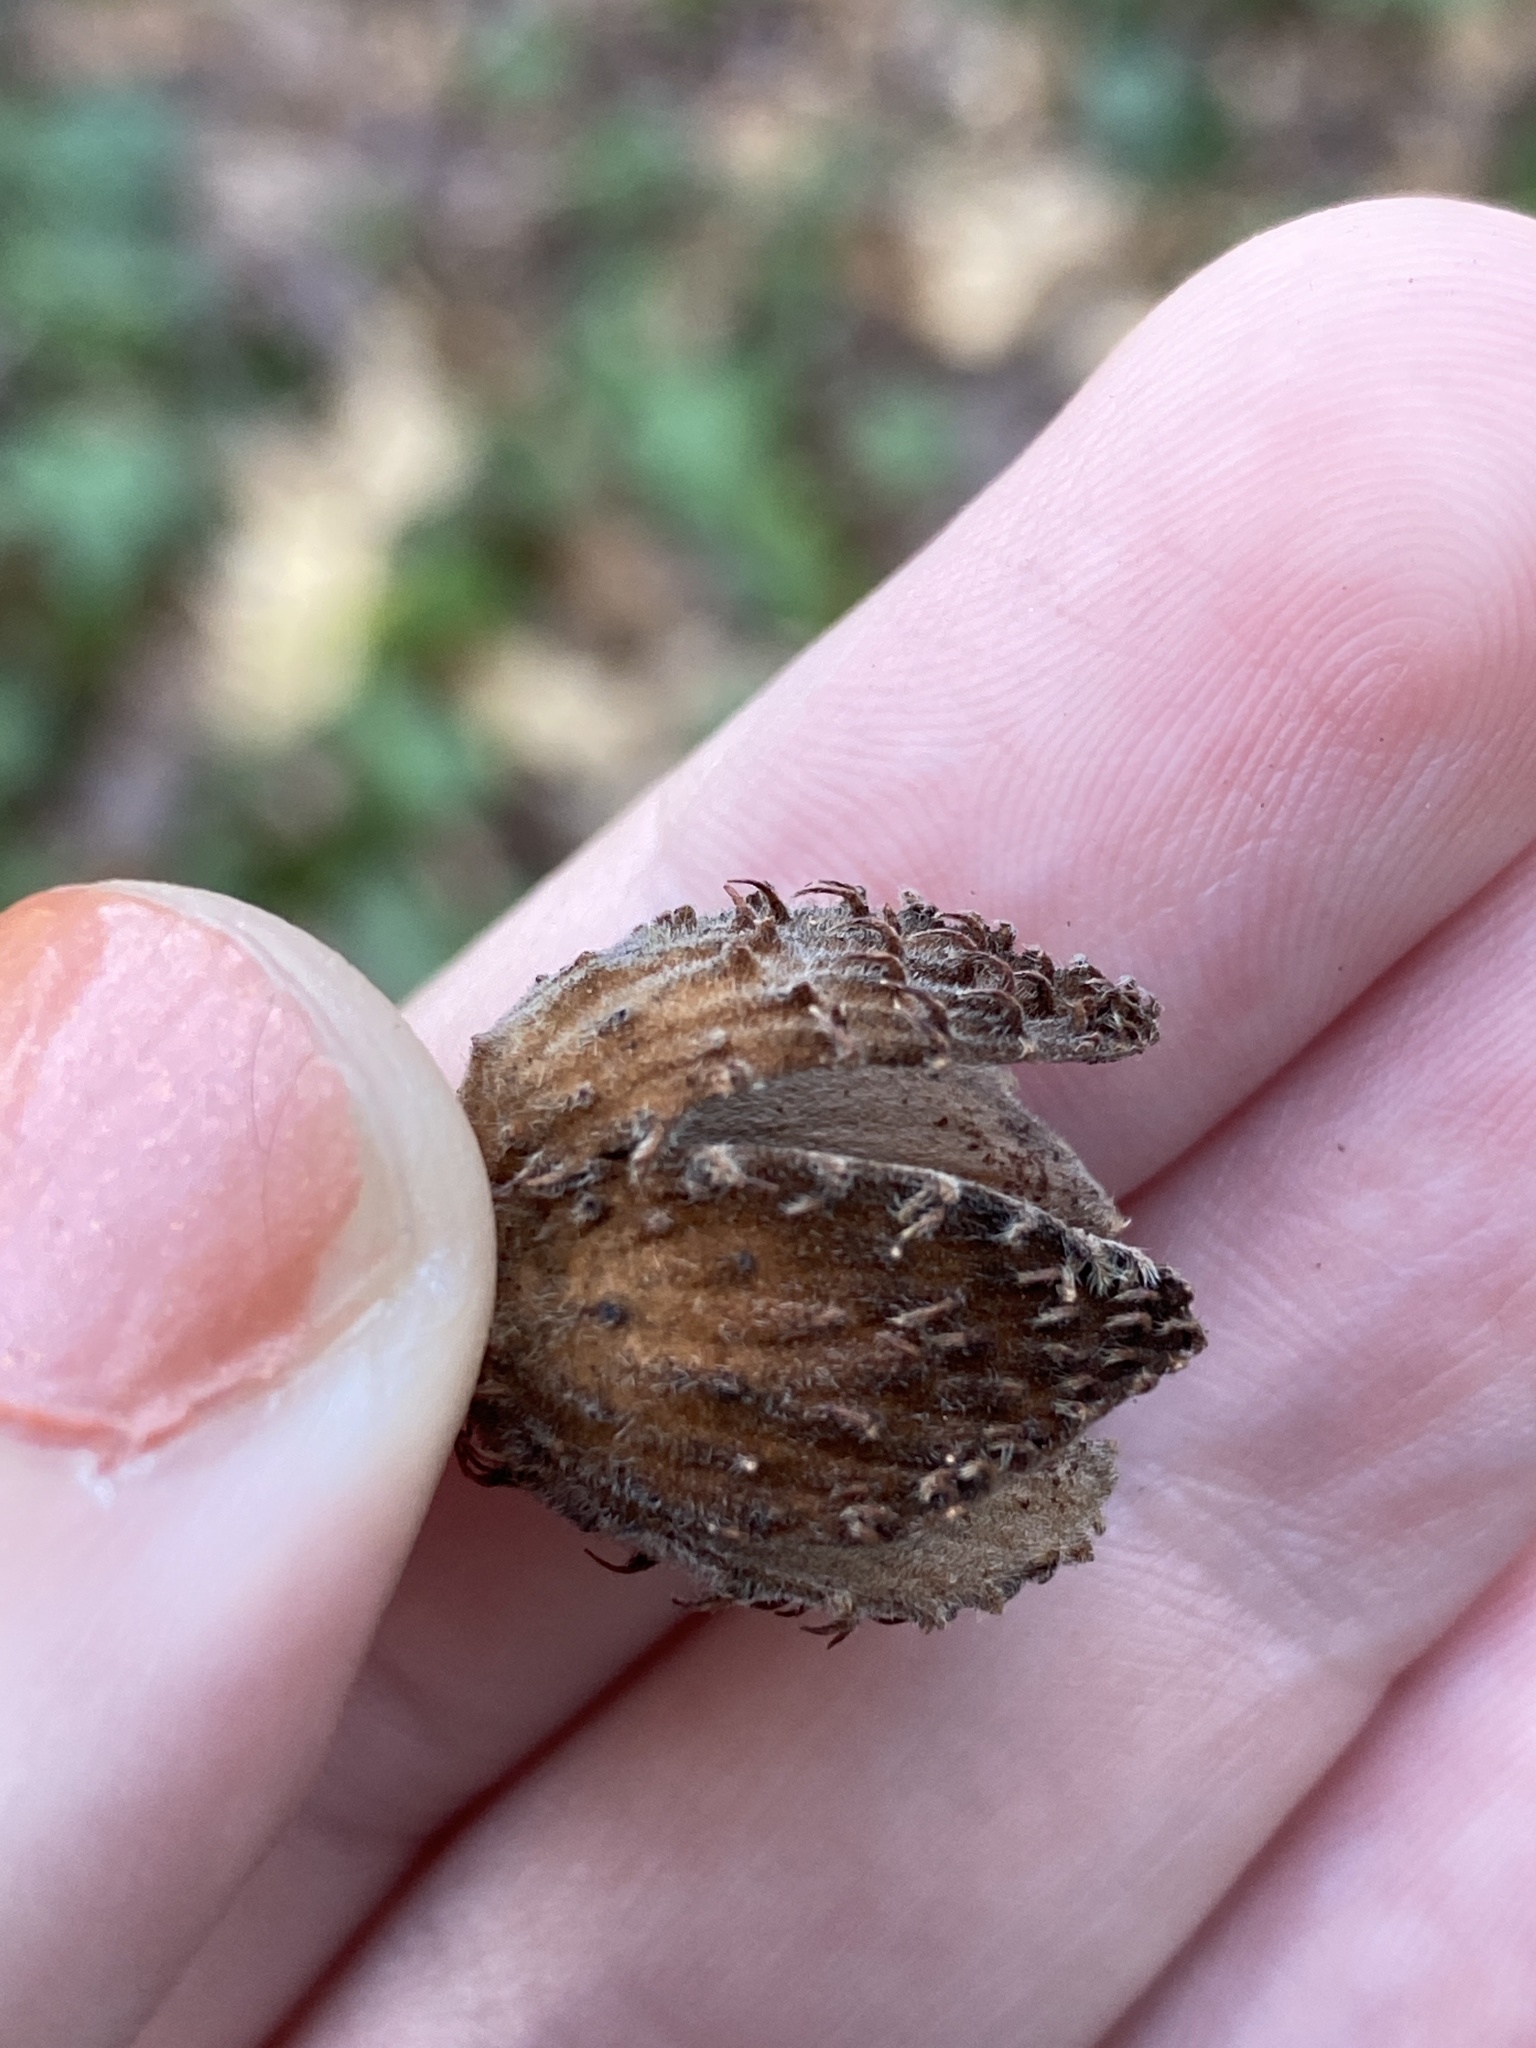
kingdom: Plantae
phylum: Tracheophyta
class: Magnoliopsida
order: Fagales
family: Fagaceae
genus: Fagus
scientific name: Fagus grandifolia
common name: American beech
